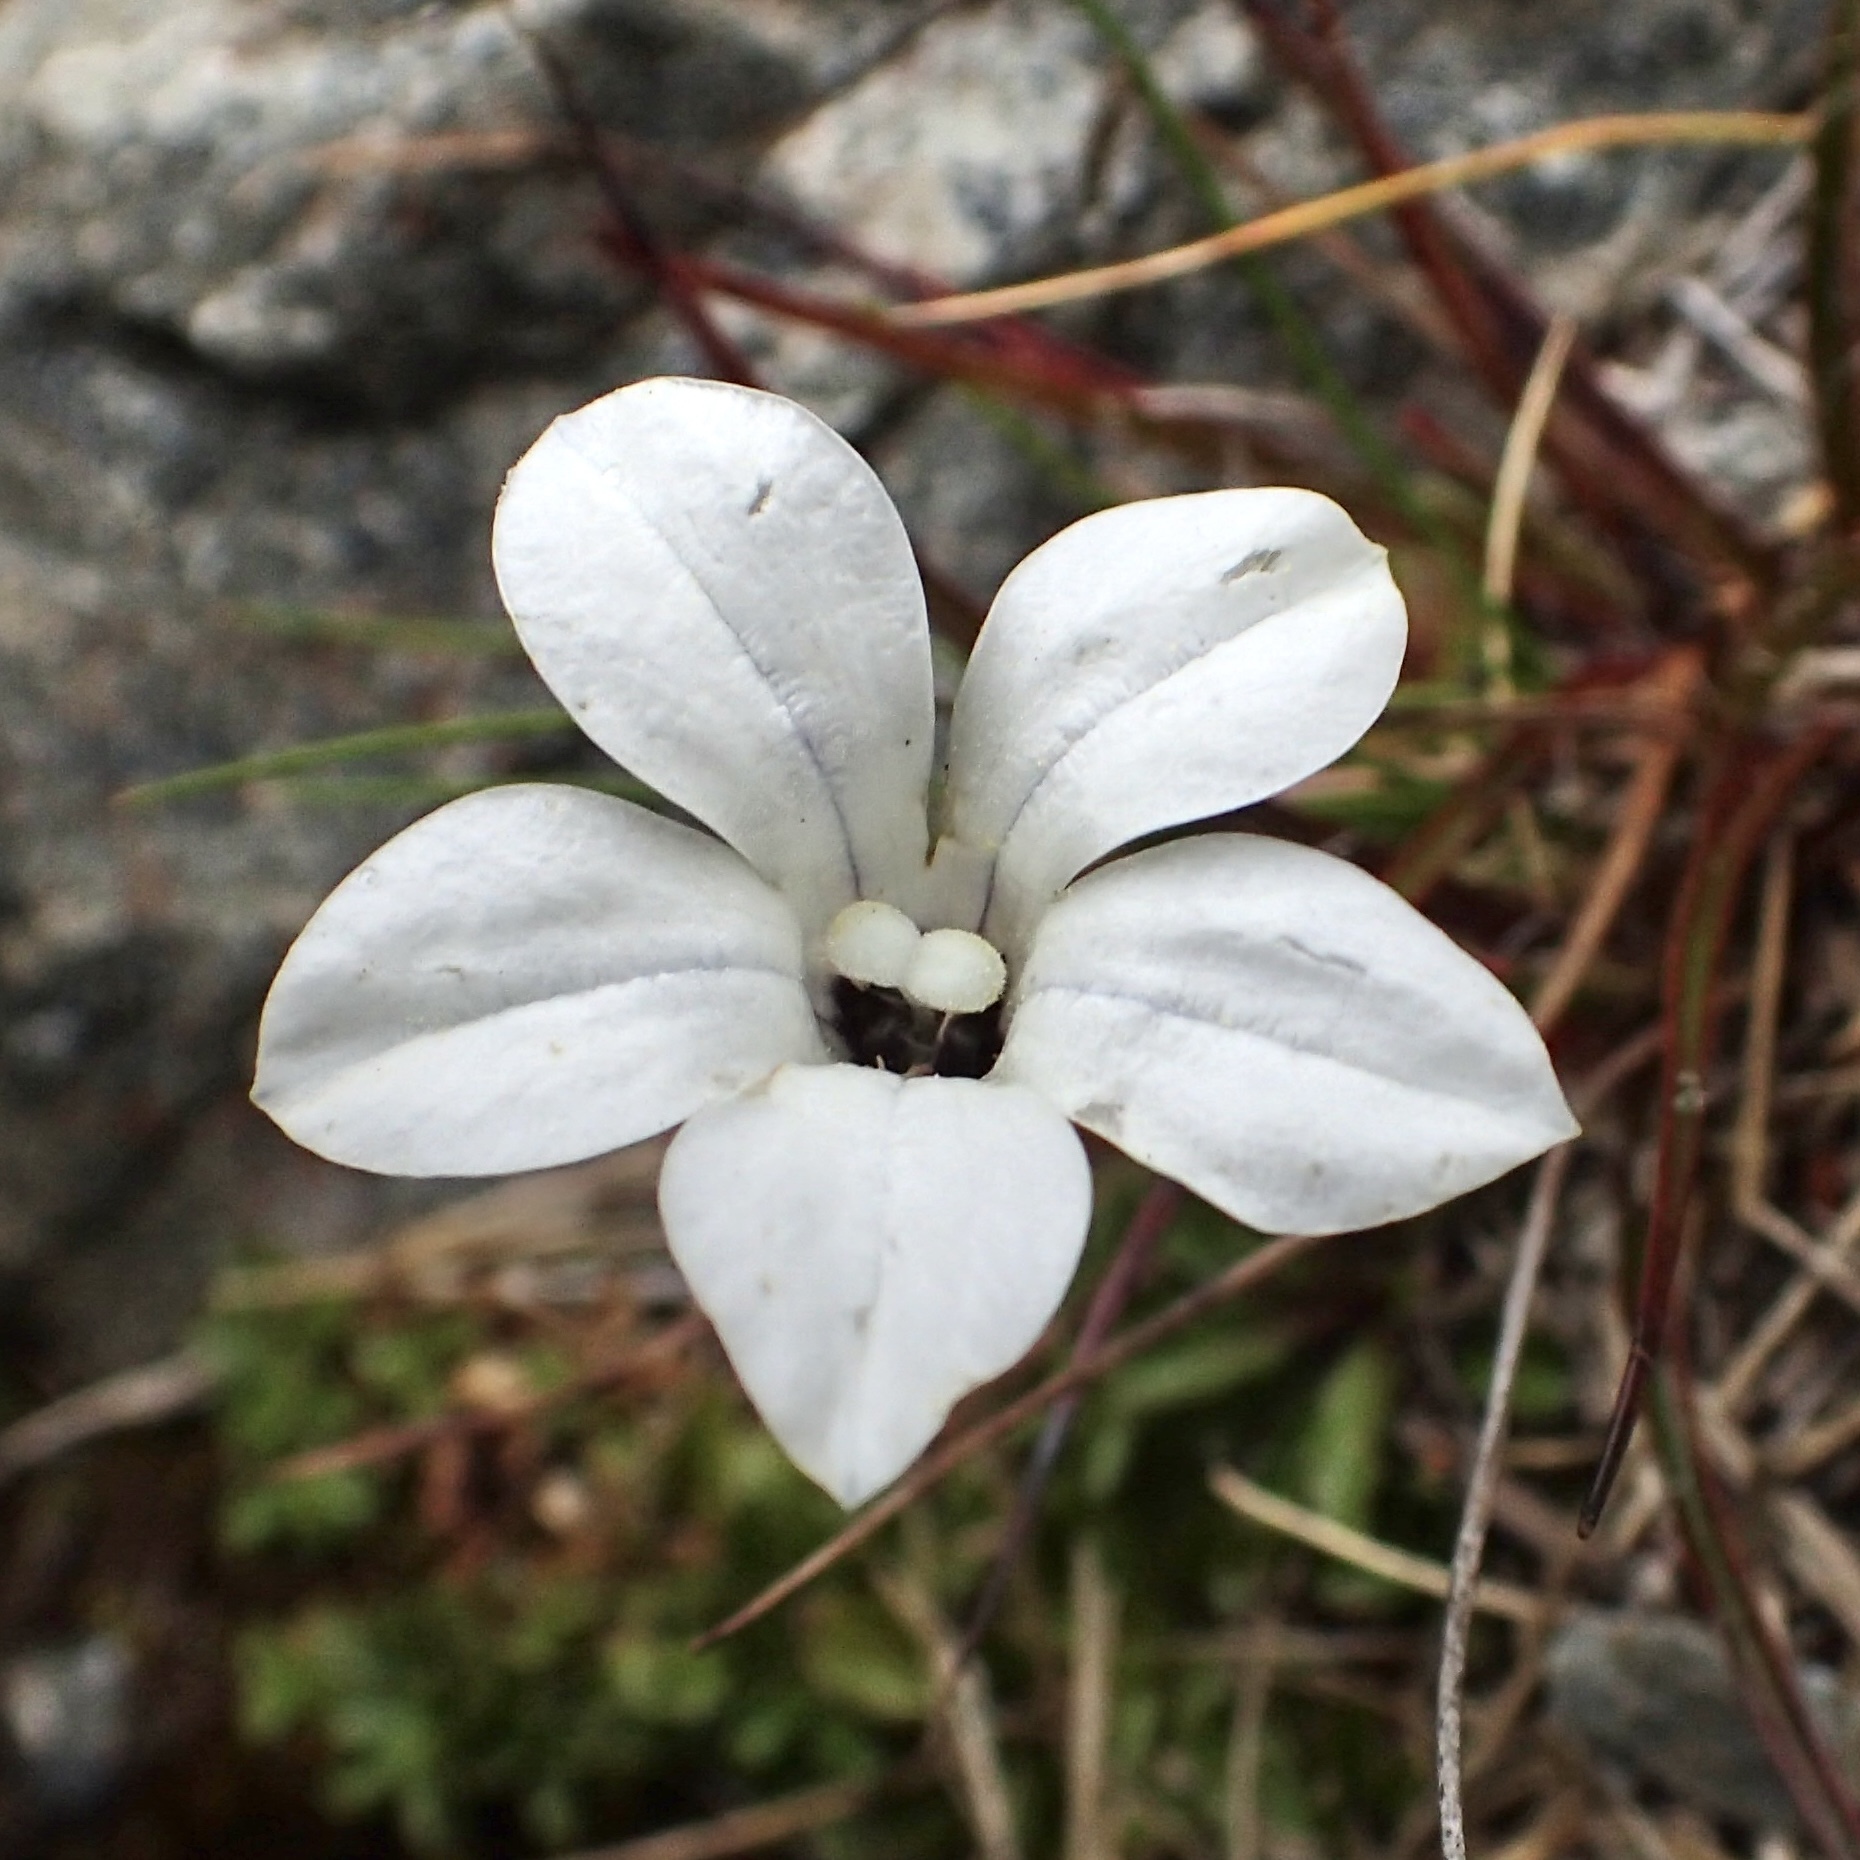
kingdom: Plantae
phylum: Tracheophyta
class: Magnoliopsida
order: Asterales
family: Campanulaceae
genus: Wahlenbergia
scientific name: Wahlenbergia albomarginata
